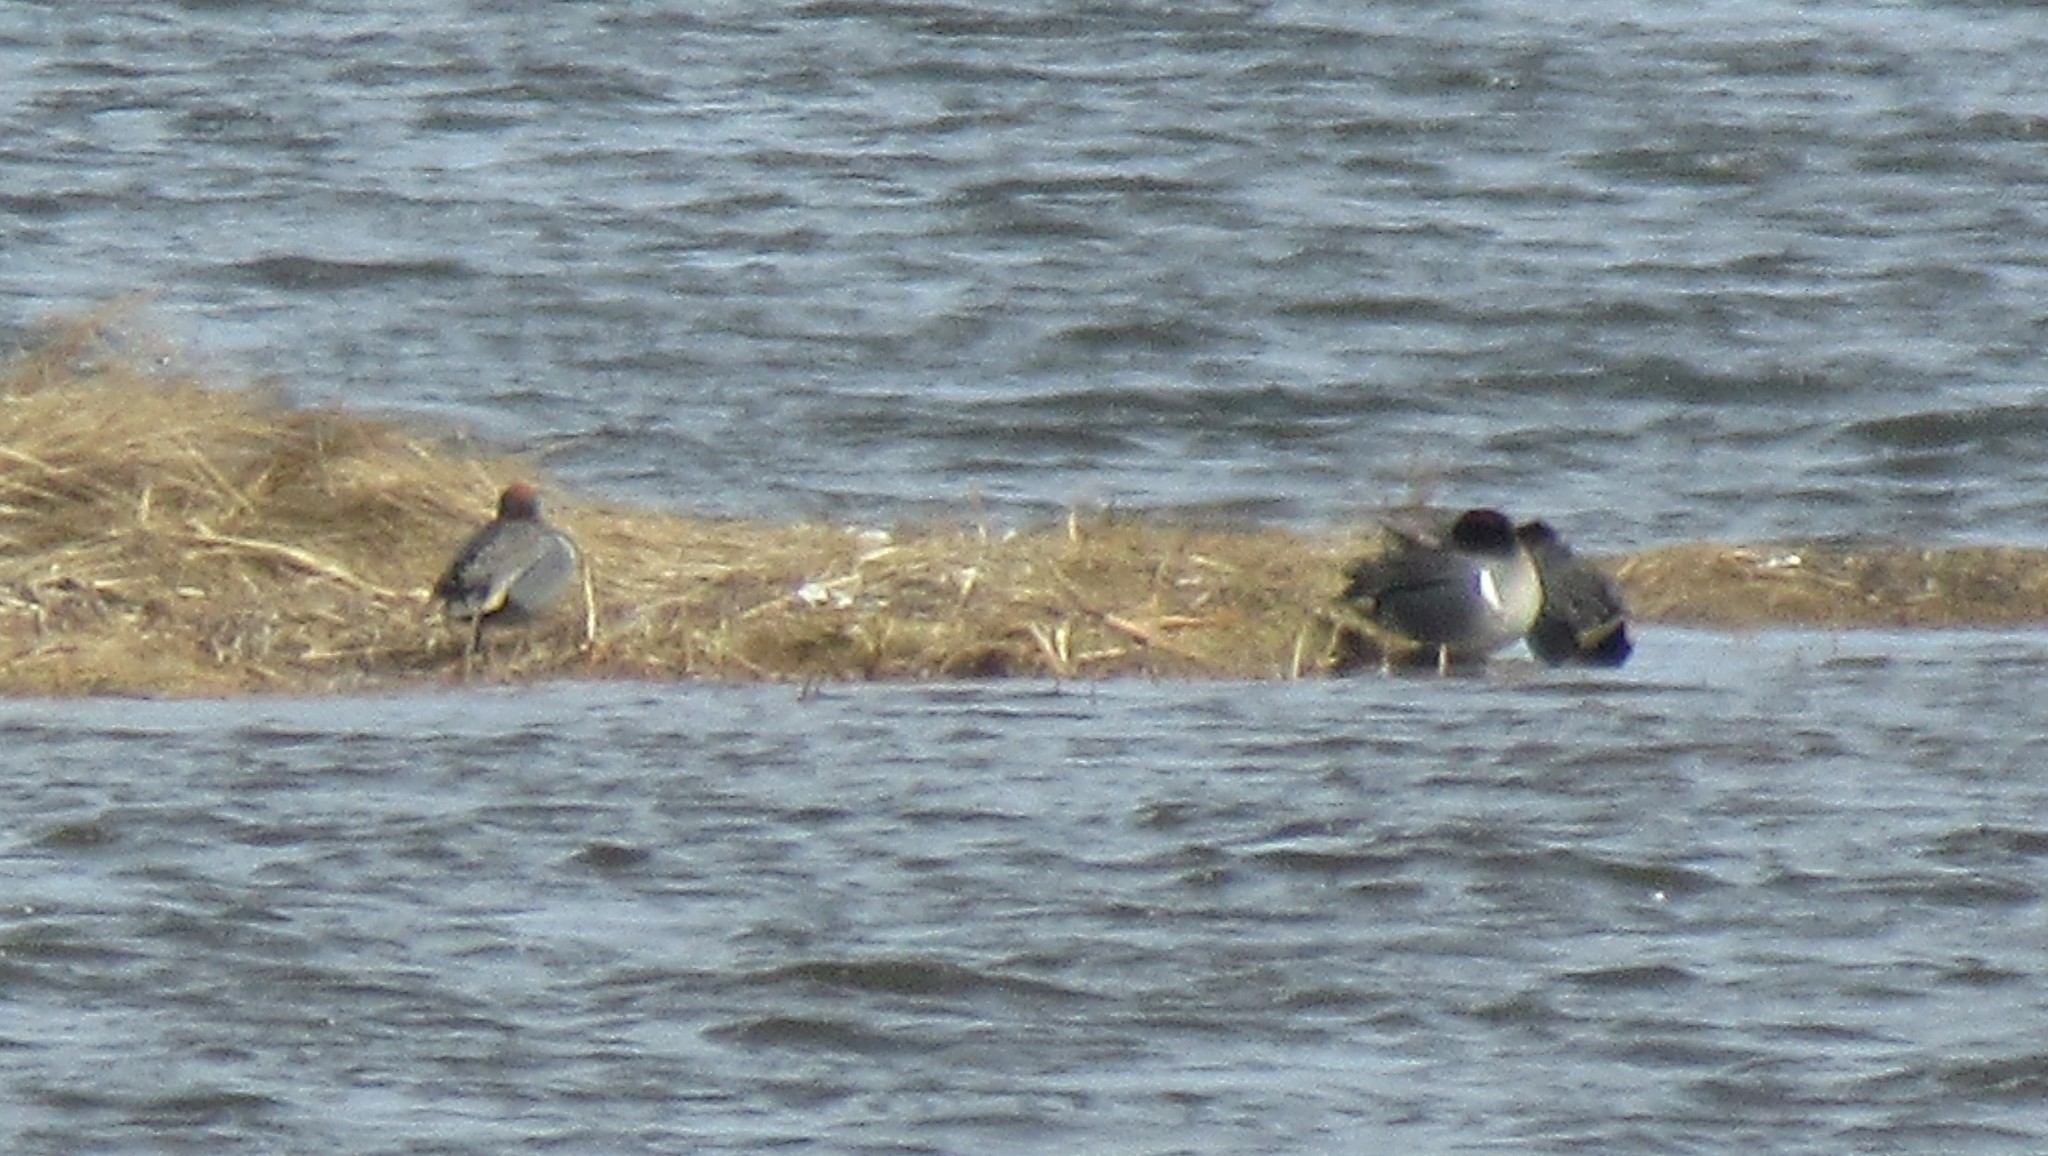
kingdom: Animalia
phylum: Chordata
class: Aves
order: Anseriformes
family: Anatidae
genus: Anas
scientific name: Anas crecca
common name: Eurasian teal
